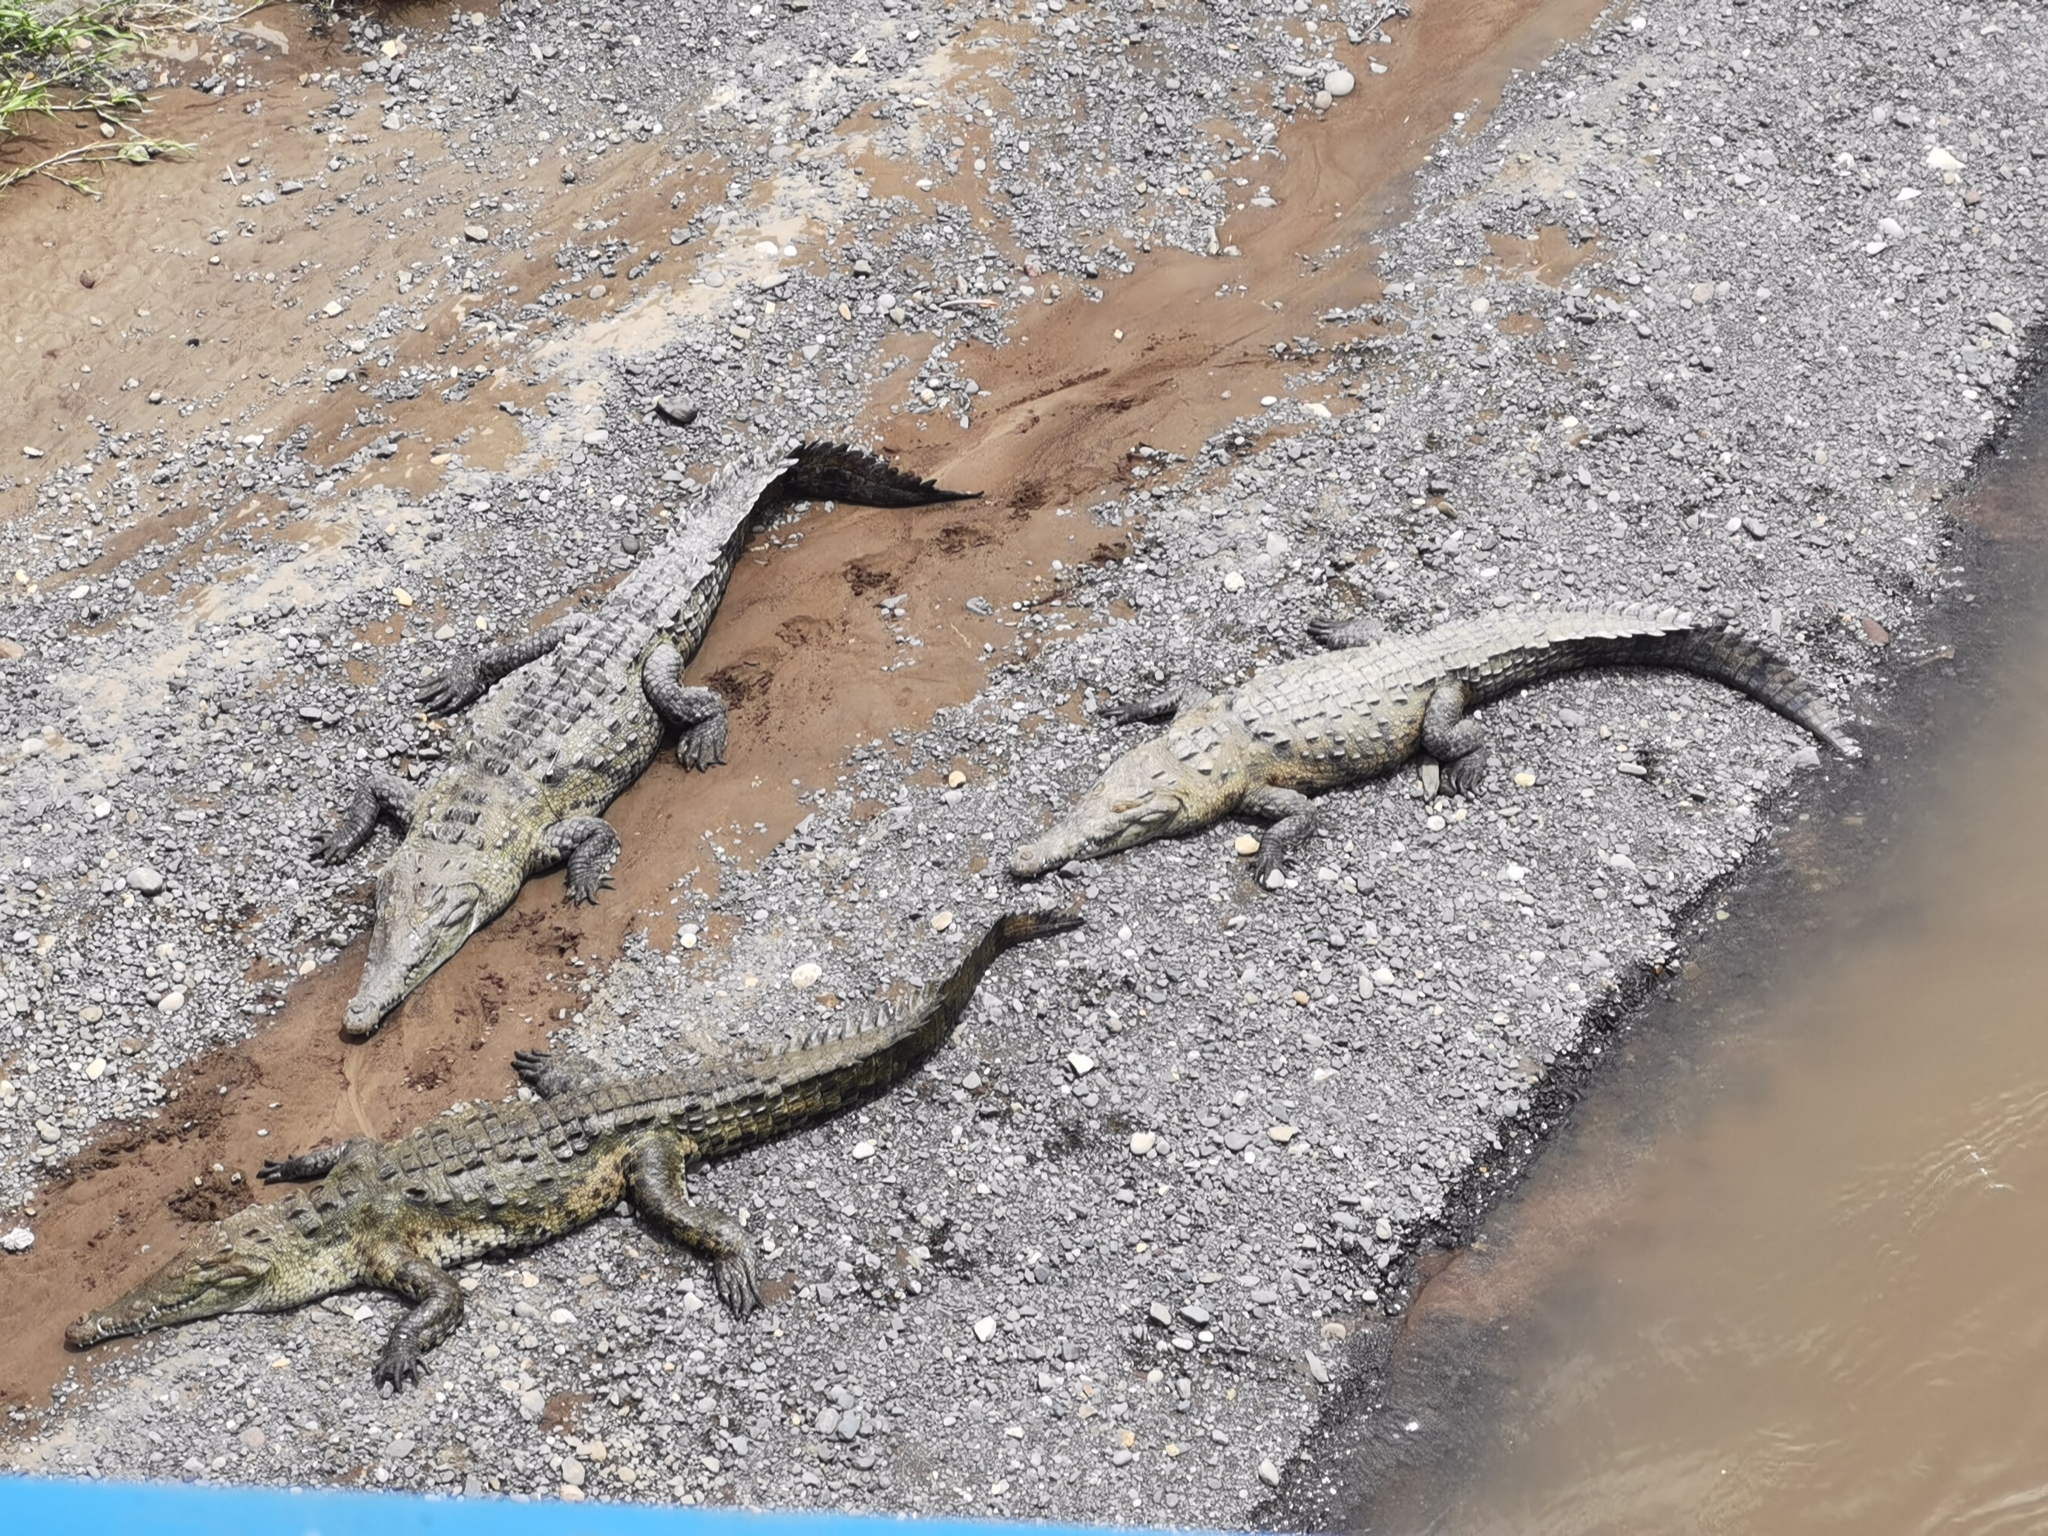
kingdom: Animalia
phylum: Chordata
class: Crocodylia
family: Crocodylidae
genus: Crocodylus
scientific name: Crocodylus acutus
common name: American crocodile
